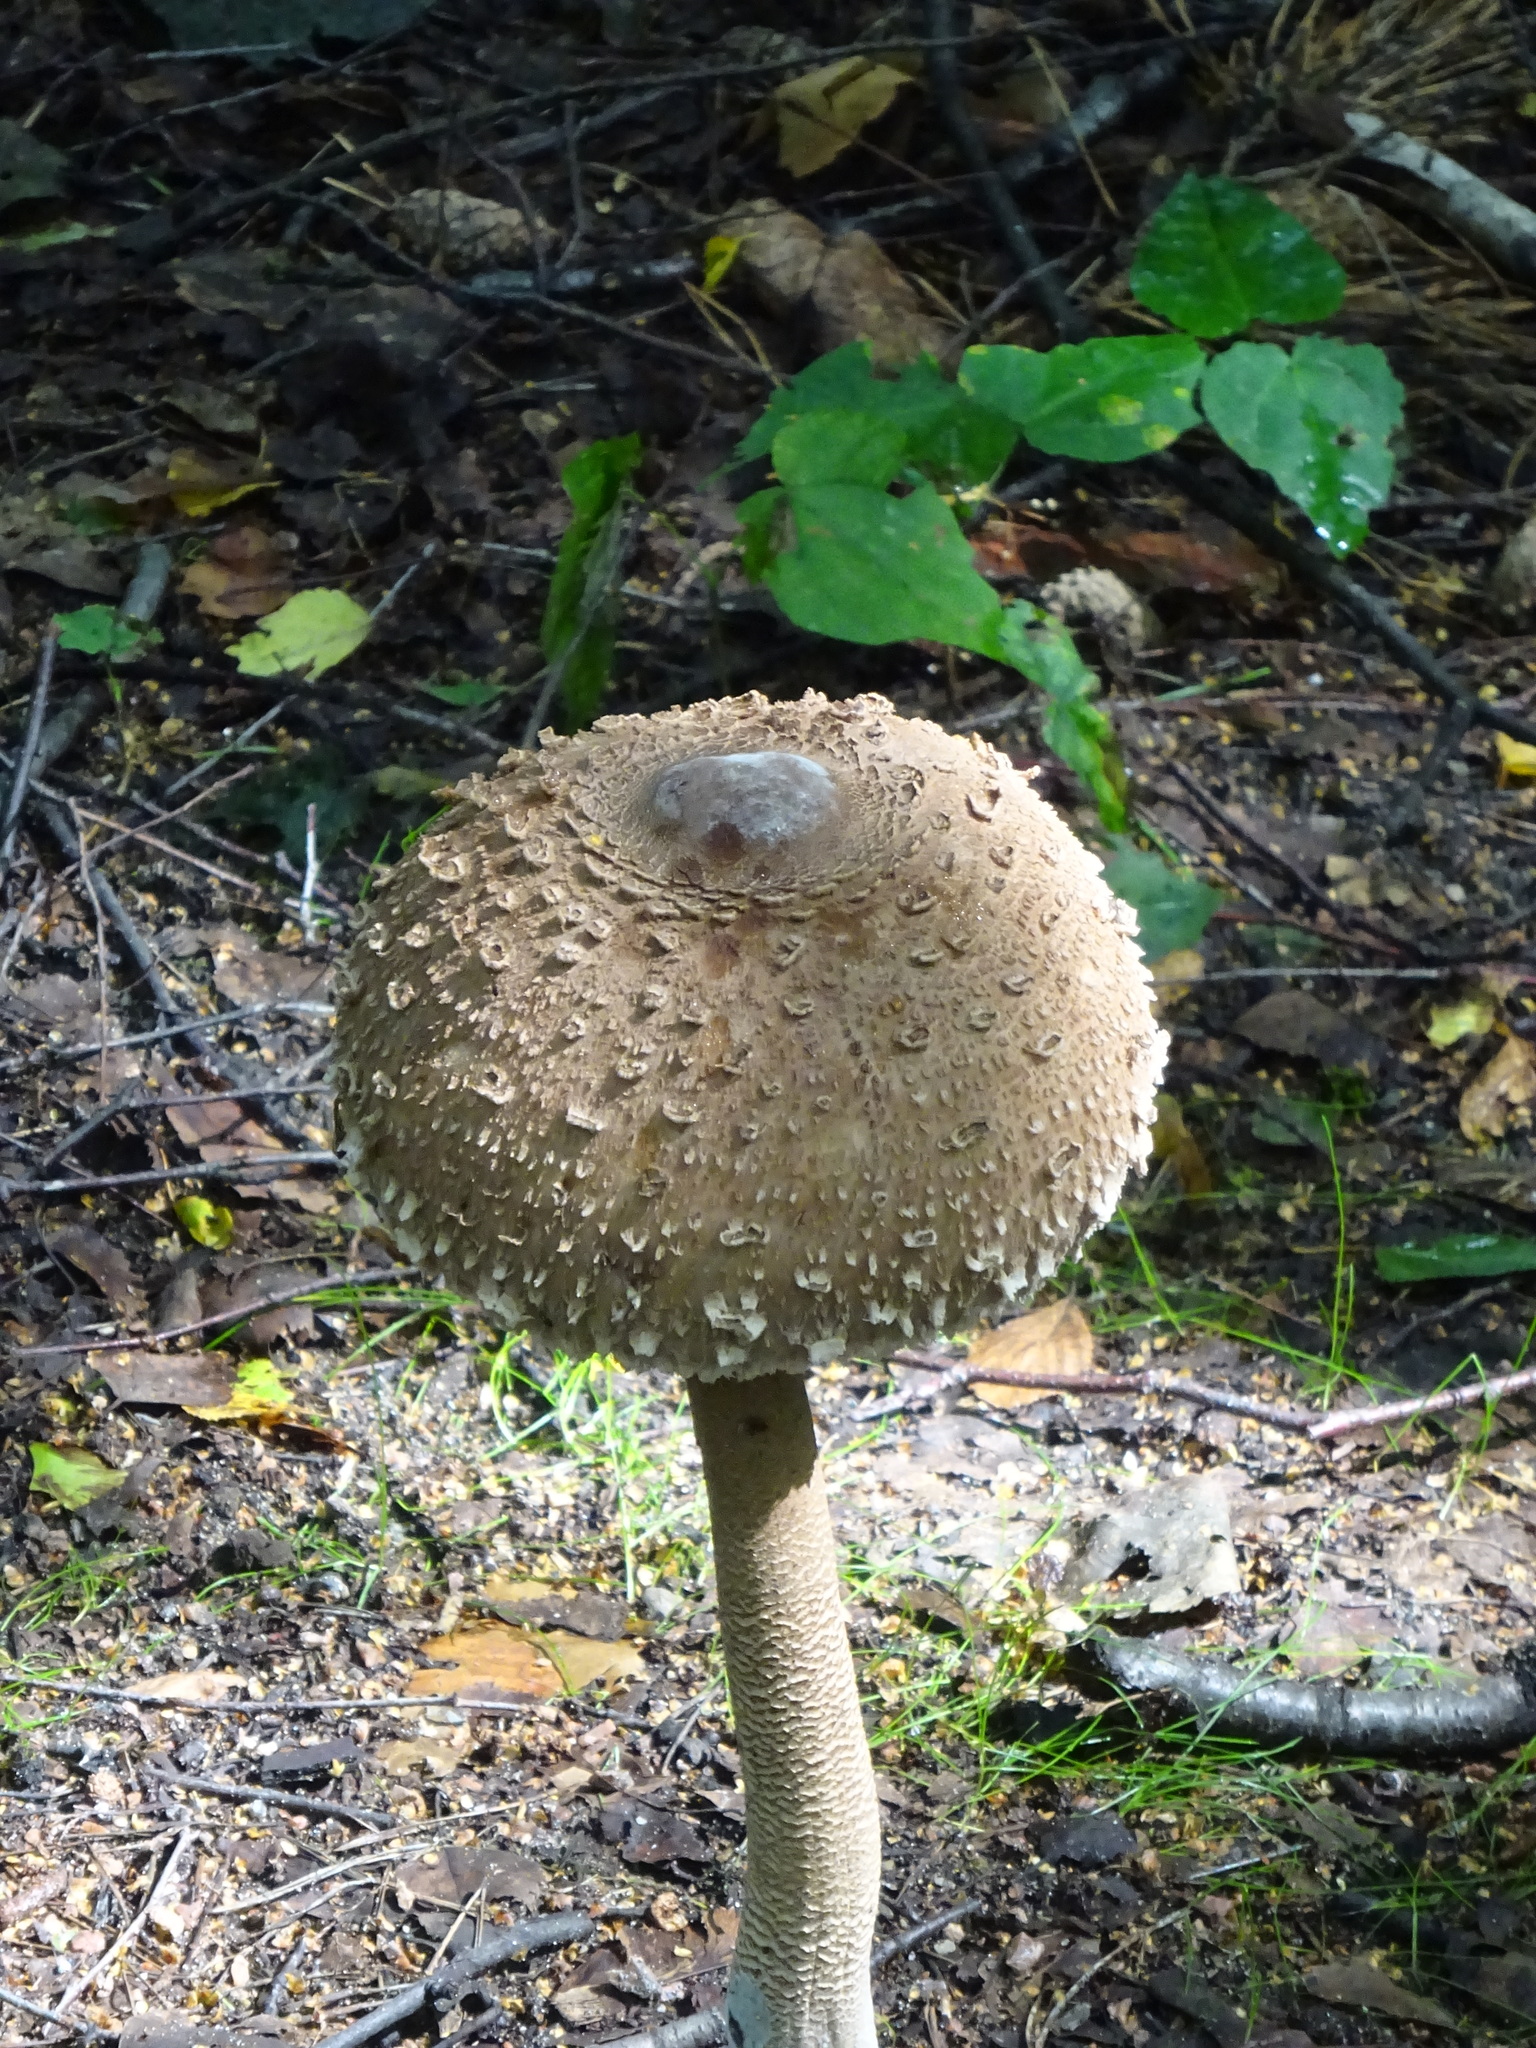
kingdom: Fungi
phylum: Basidiomycota
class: Agaricomycetes
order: Agaricales
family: Agaricaceae
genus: Macrolepiota
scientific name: Macrolepiota procera
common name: Parasol
